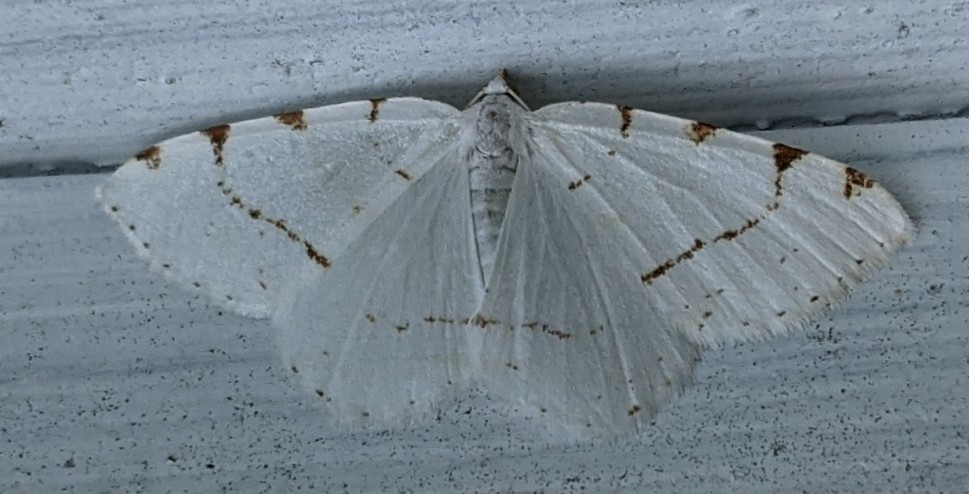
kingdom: Animalia
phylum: Arthropoda
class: Insecta
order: Lepidoptera
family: Geometridae
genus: Macaria
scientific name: Macaria pustularia
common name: Lesser maple spanworm moth
